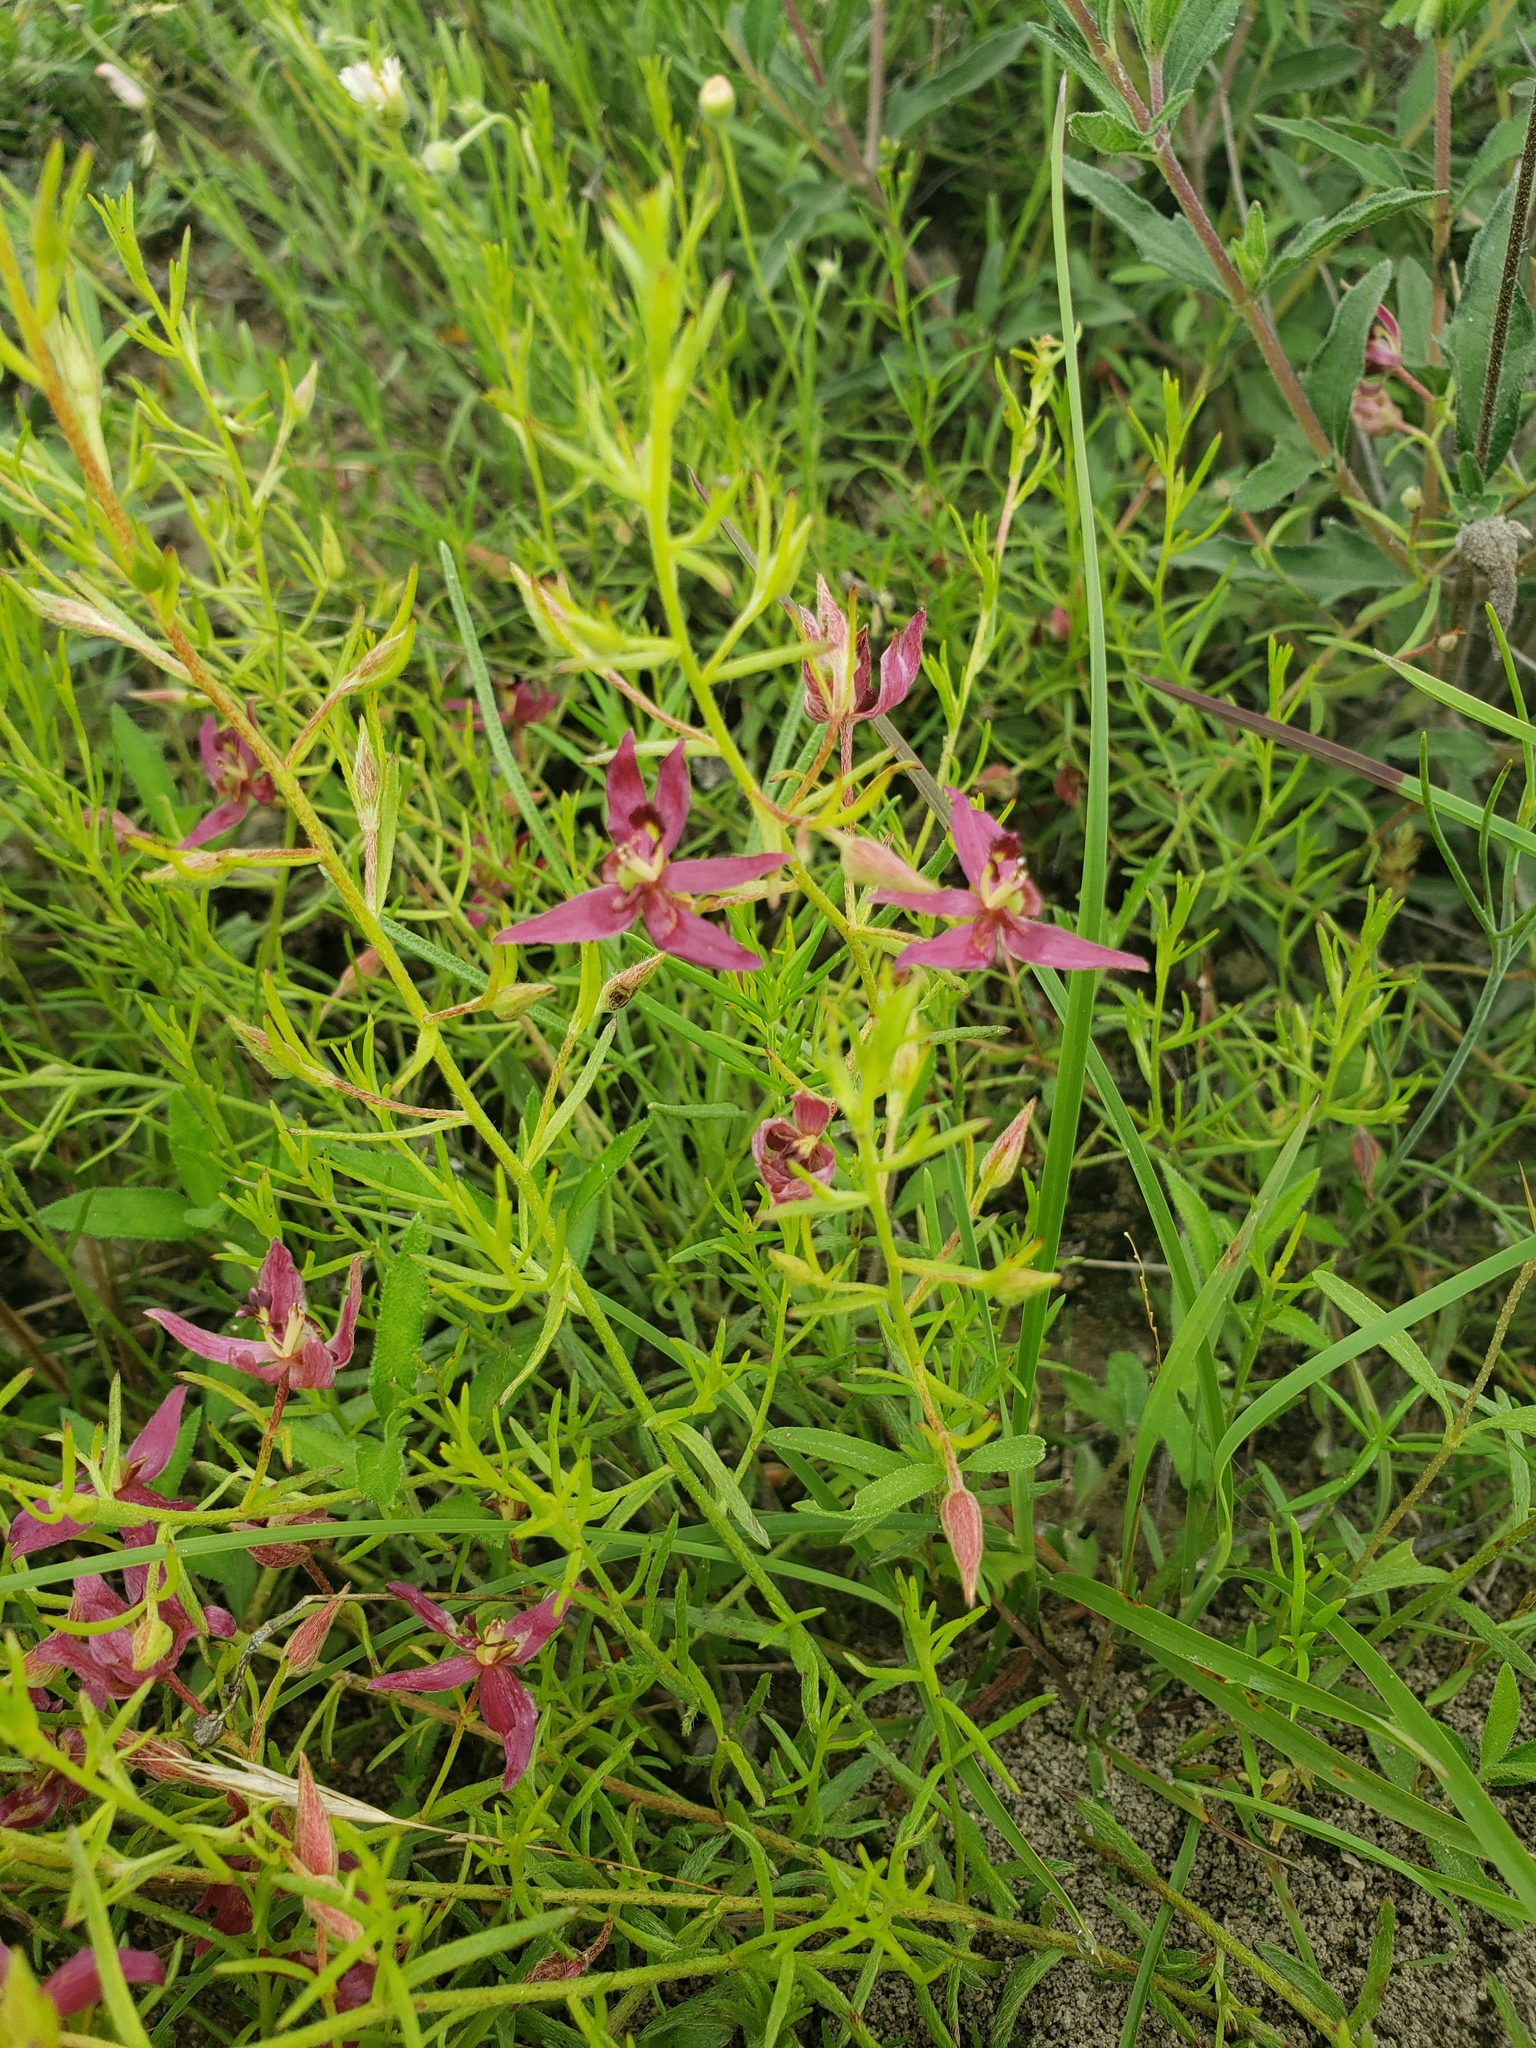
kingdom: Plantae
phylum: Tracheophyta
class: Magnoliopsida
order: Zygophyllales
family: Krameriaceae
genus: Krameria
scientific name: Krameria lanceolata
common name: Ratany
